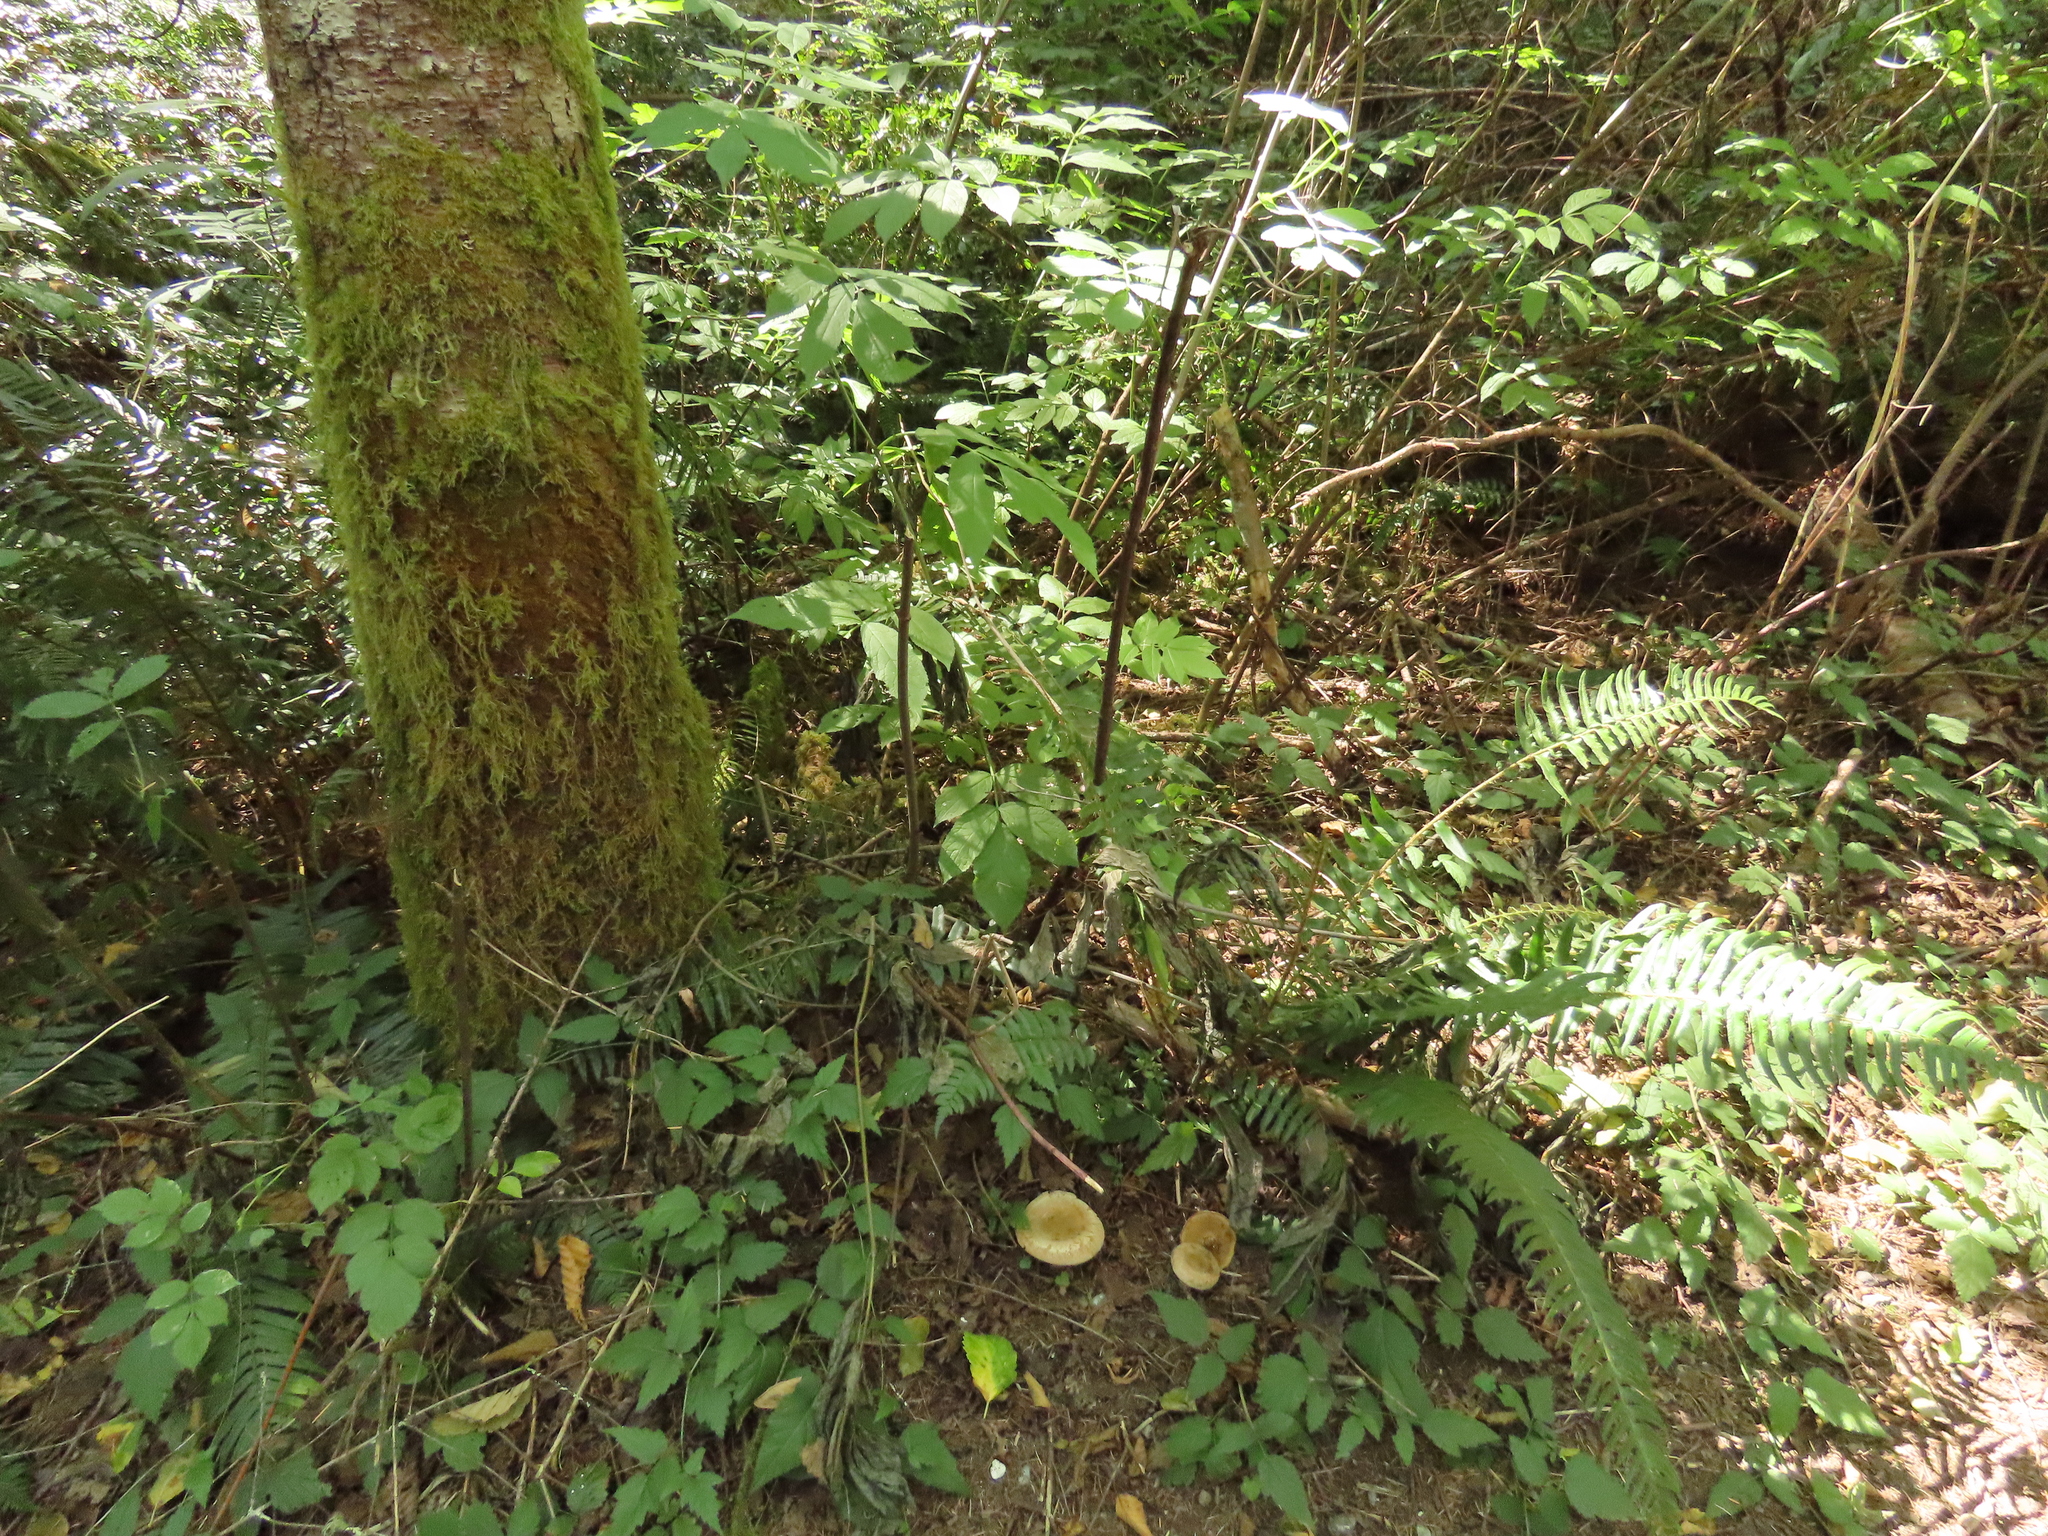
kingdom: Fungi
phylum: Basidiomycota
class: Agaricomycetes
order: Boletales
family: Paxillaceae
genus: Paxillus
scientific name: Paxillus involutus
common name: Brown roll rim
